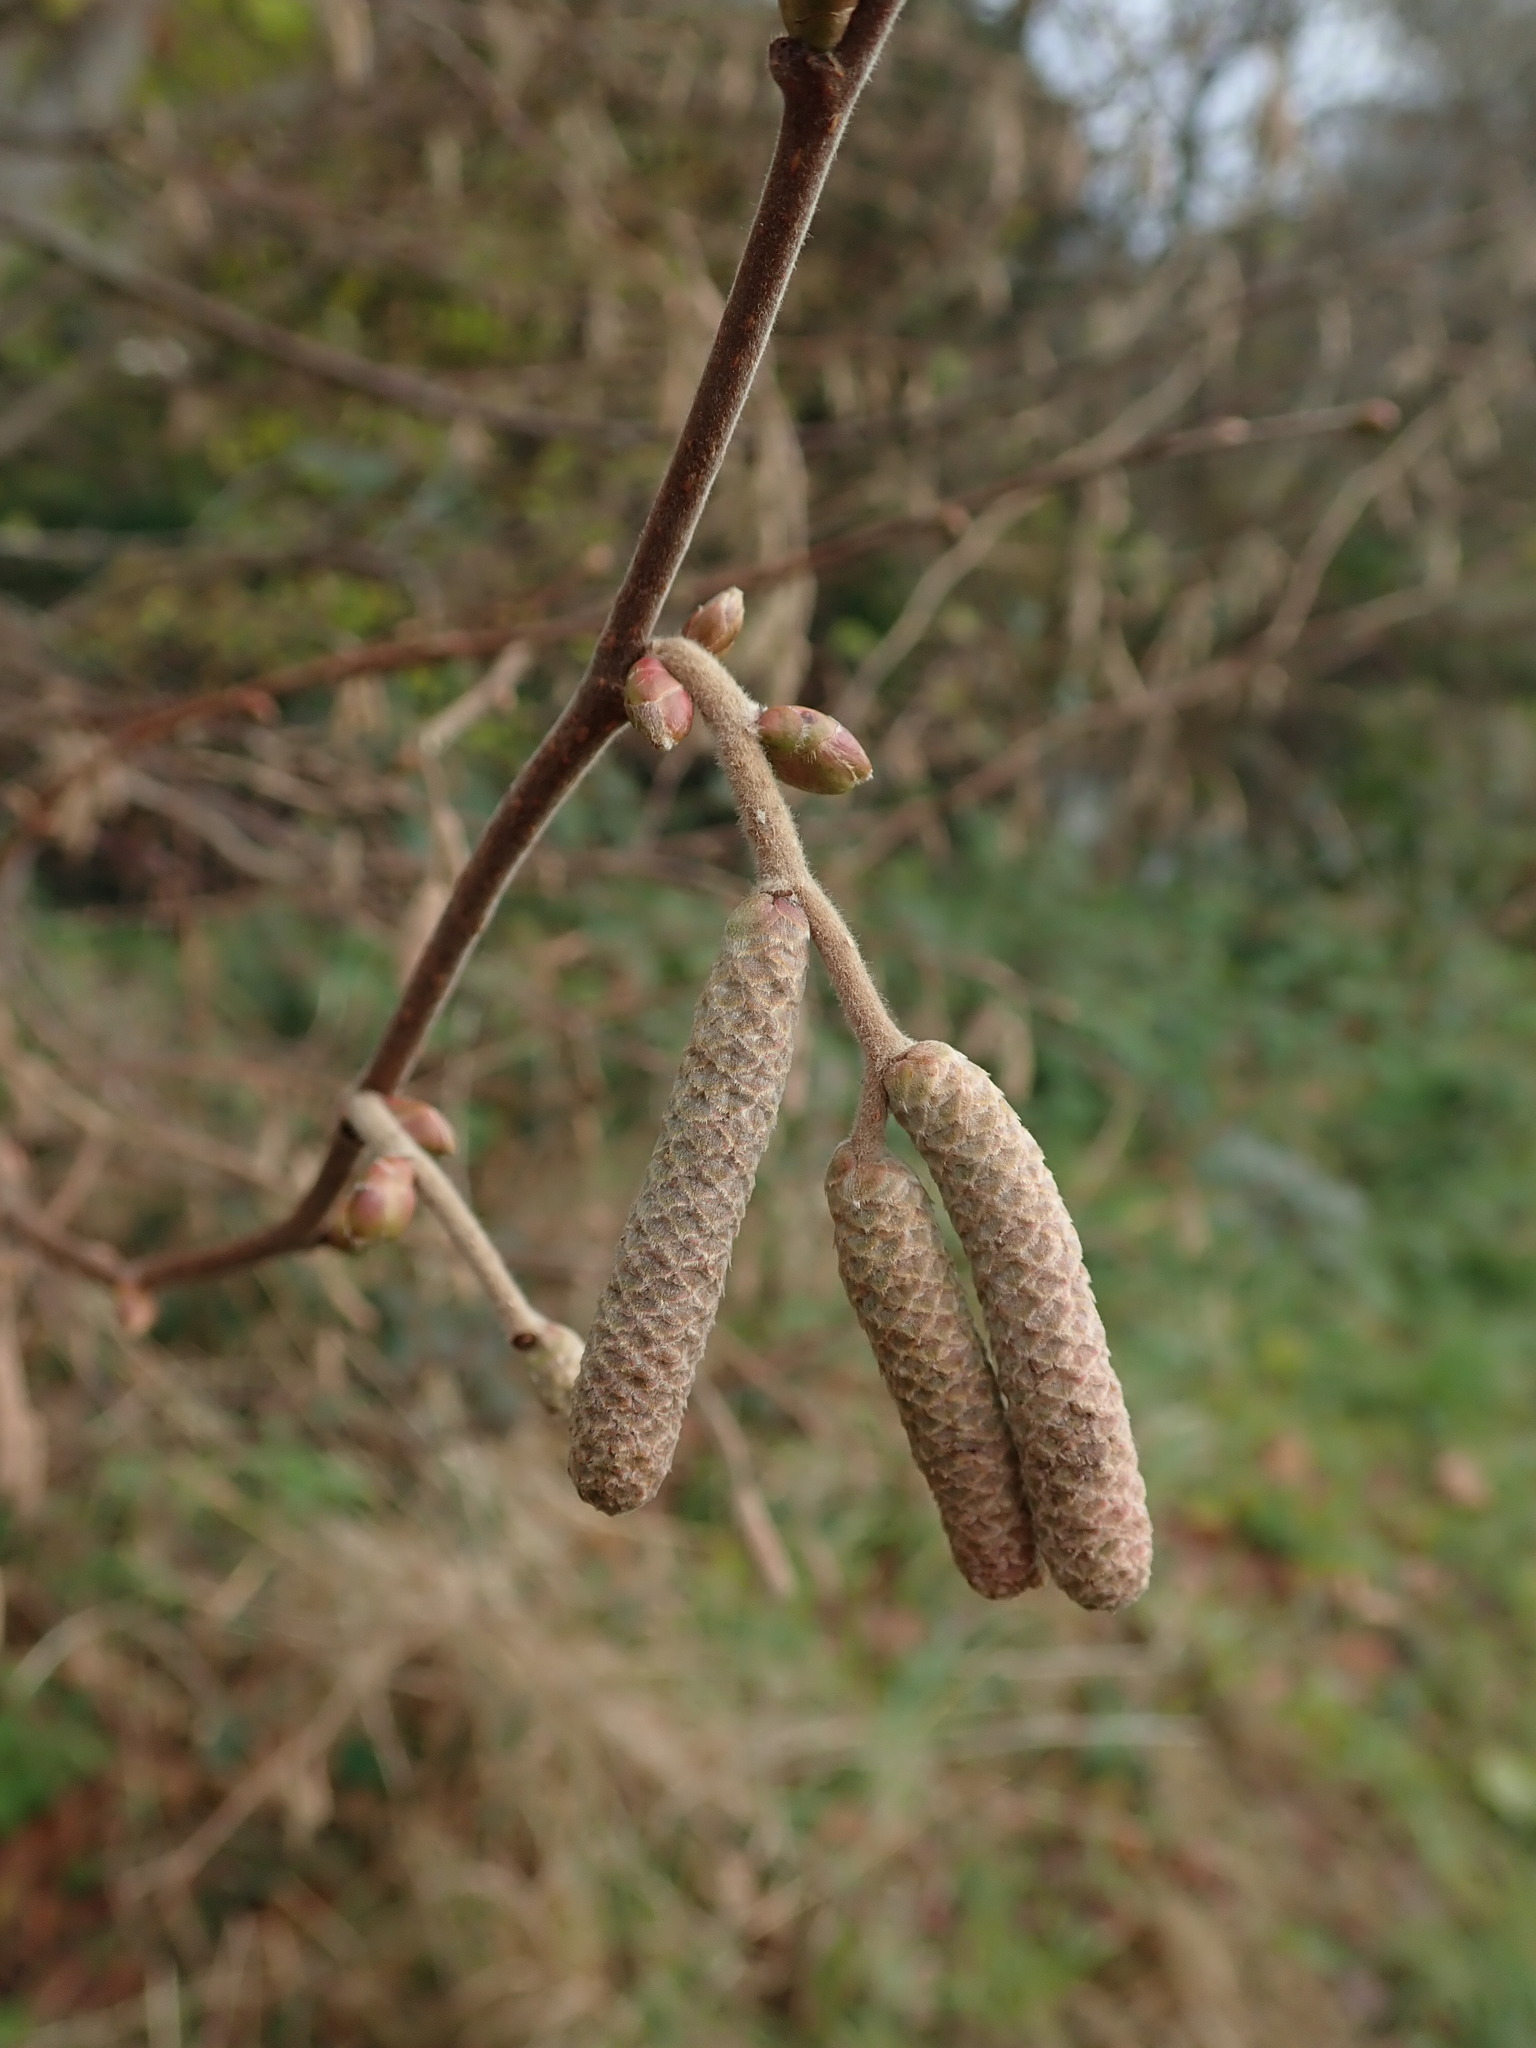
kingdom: Plantae
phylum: Tracheophyta
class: Magnoliopsida
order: Fagales
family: Betulaceae
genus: Corylus
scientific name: Corylus avellana
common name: European hazel
